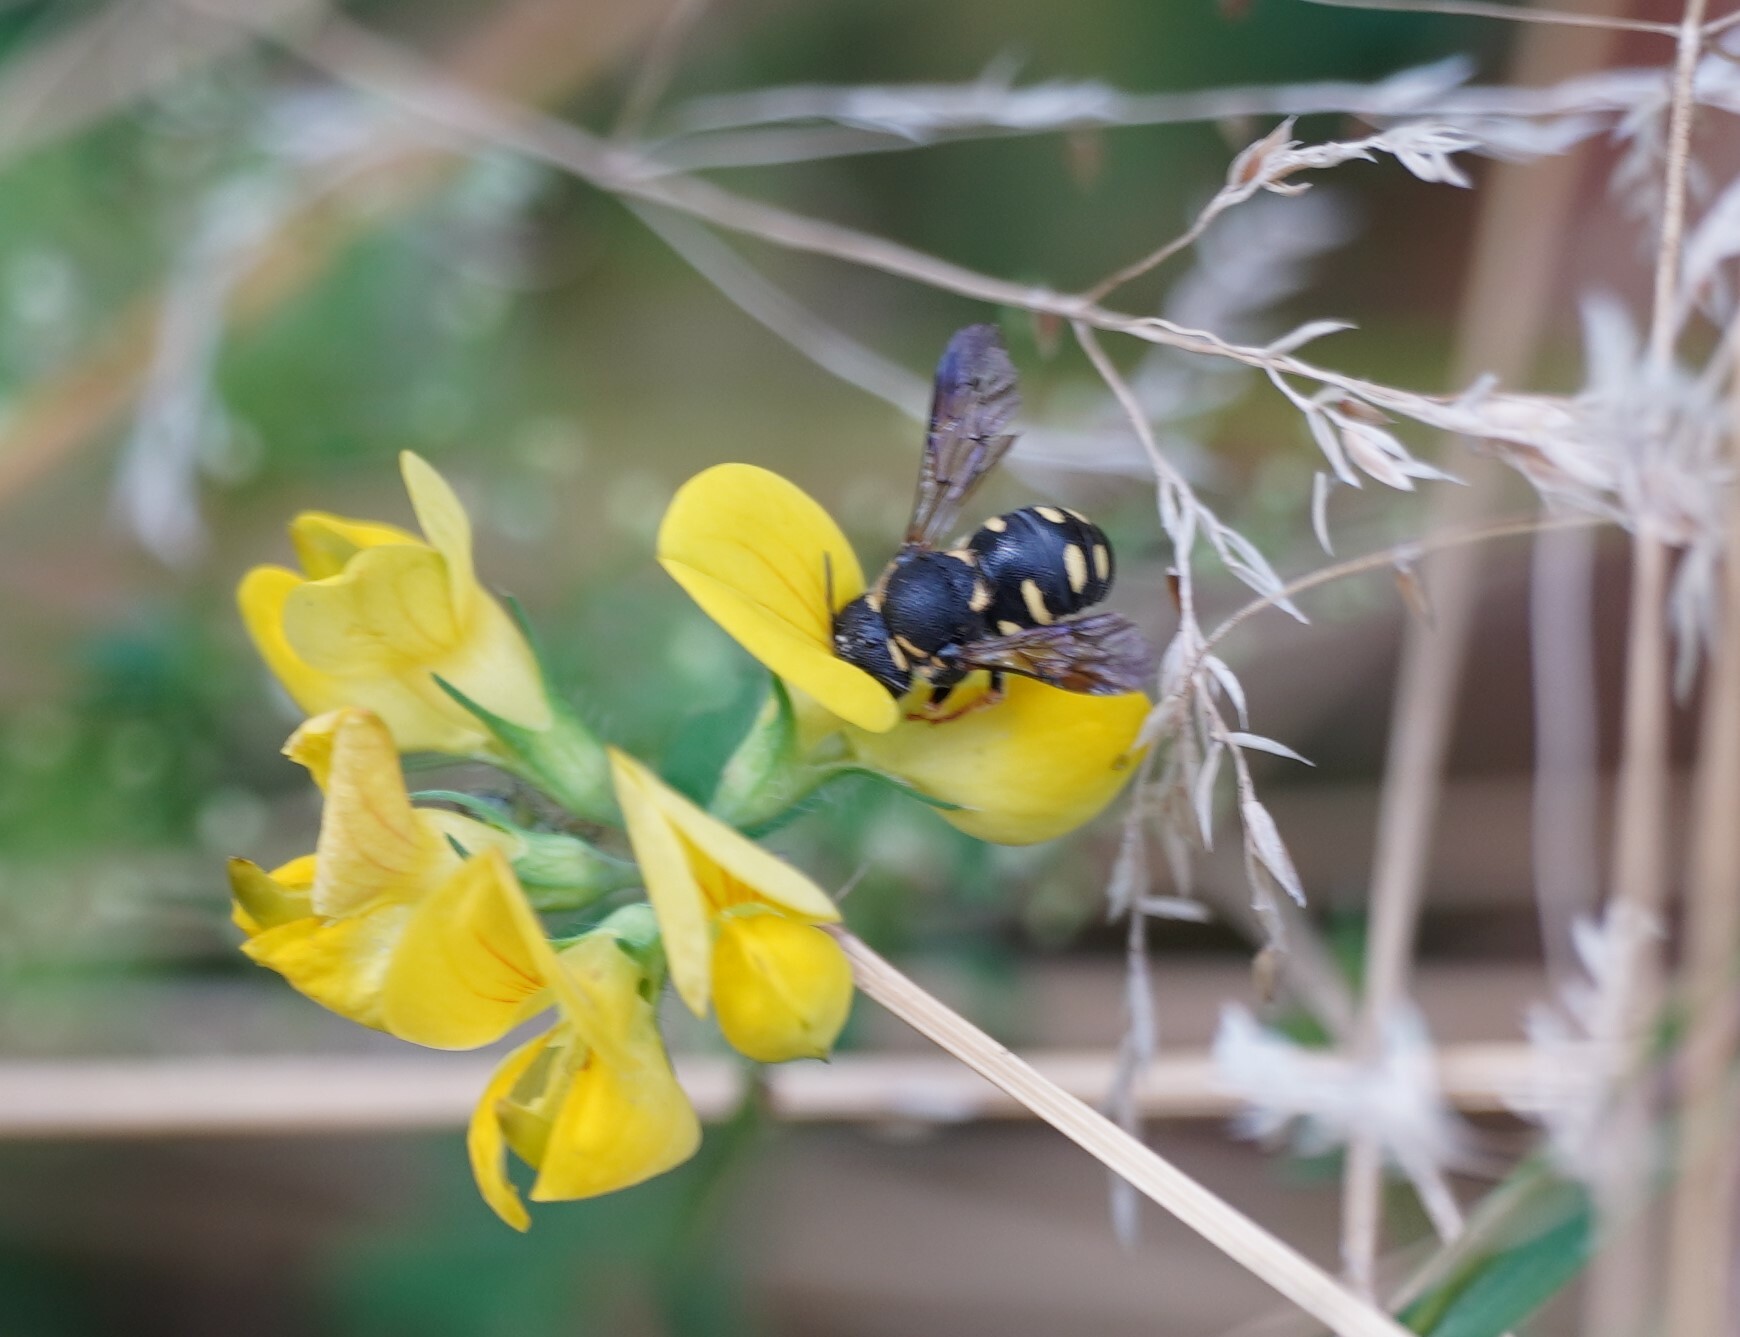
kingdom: Animalia
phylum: Arthropoda
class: Insecta
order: Hymenoptera
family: Megachilidae
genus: Anthidiellum
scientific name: Anthidiellum strigatum
